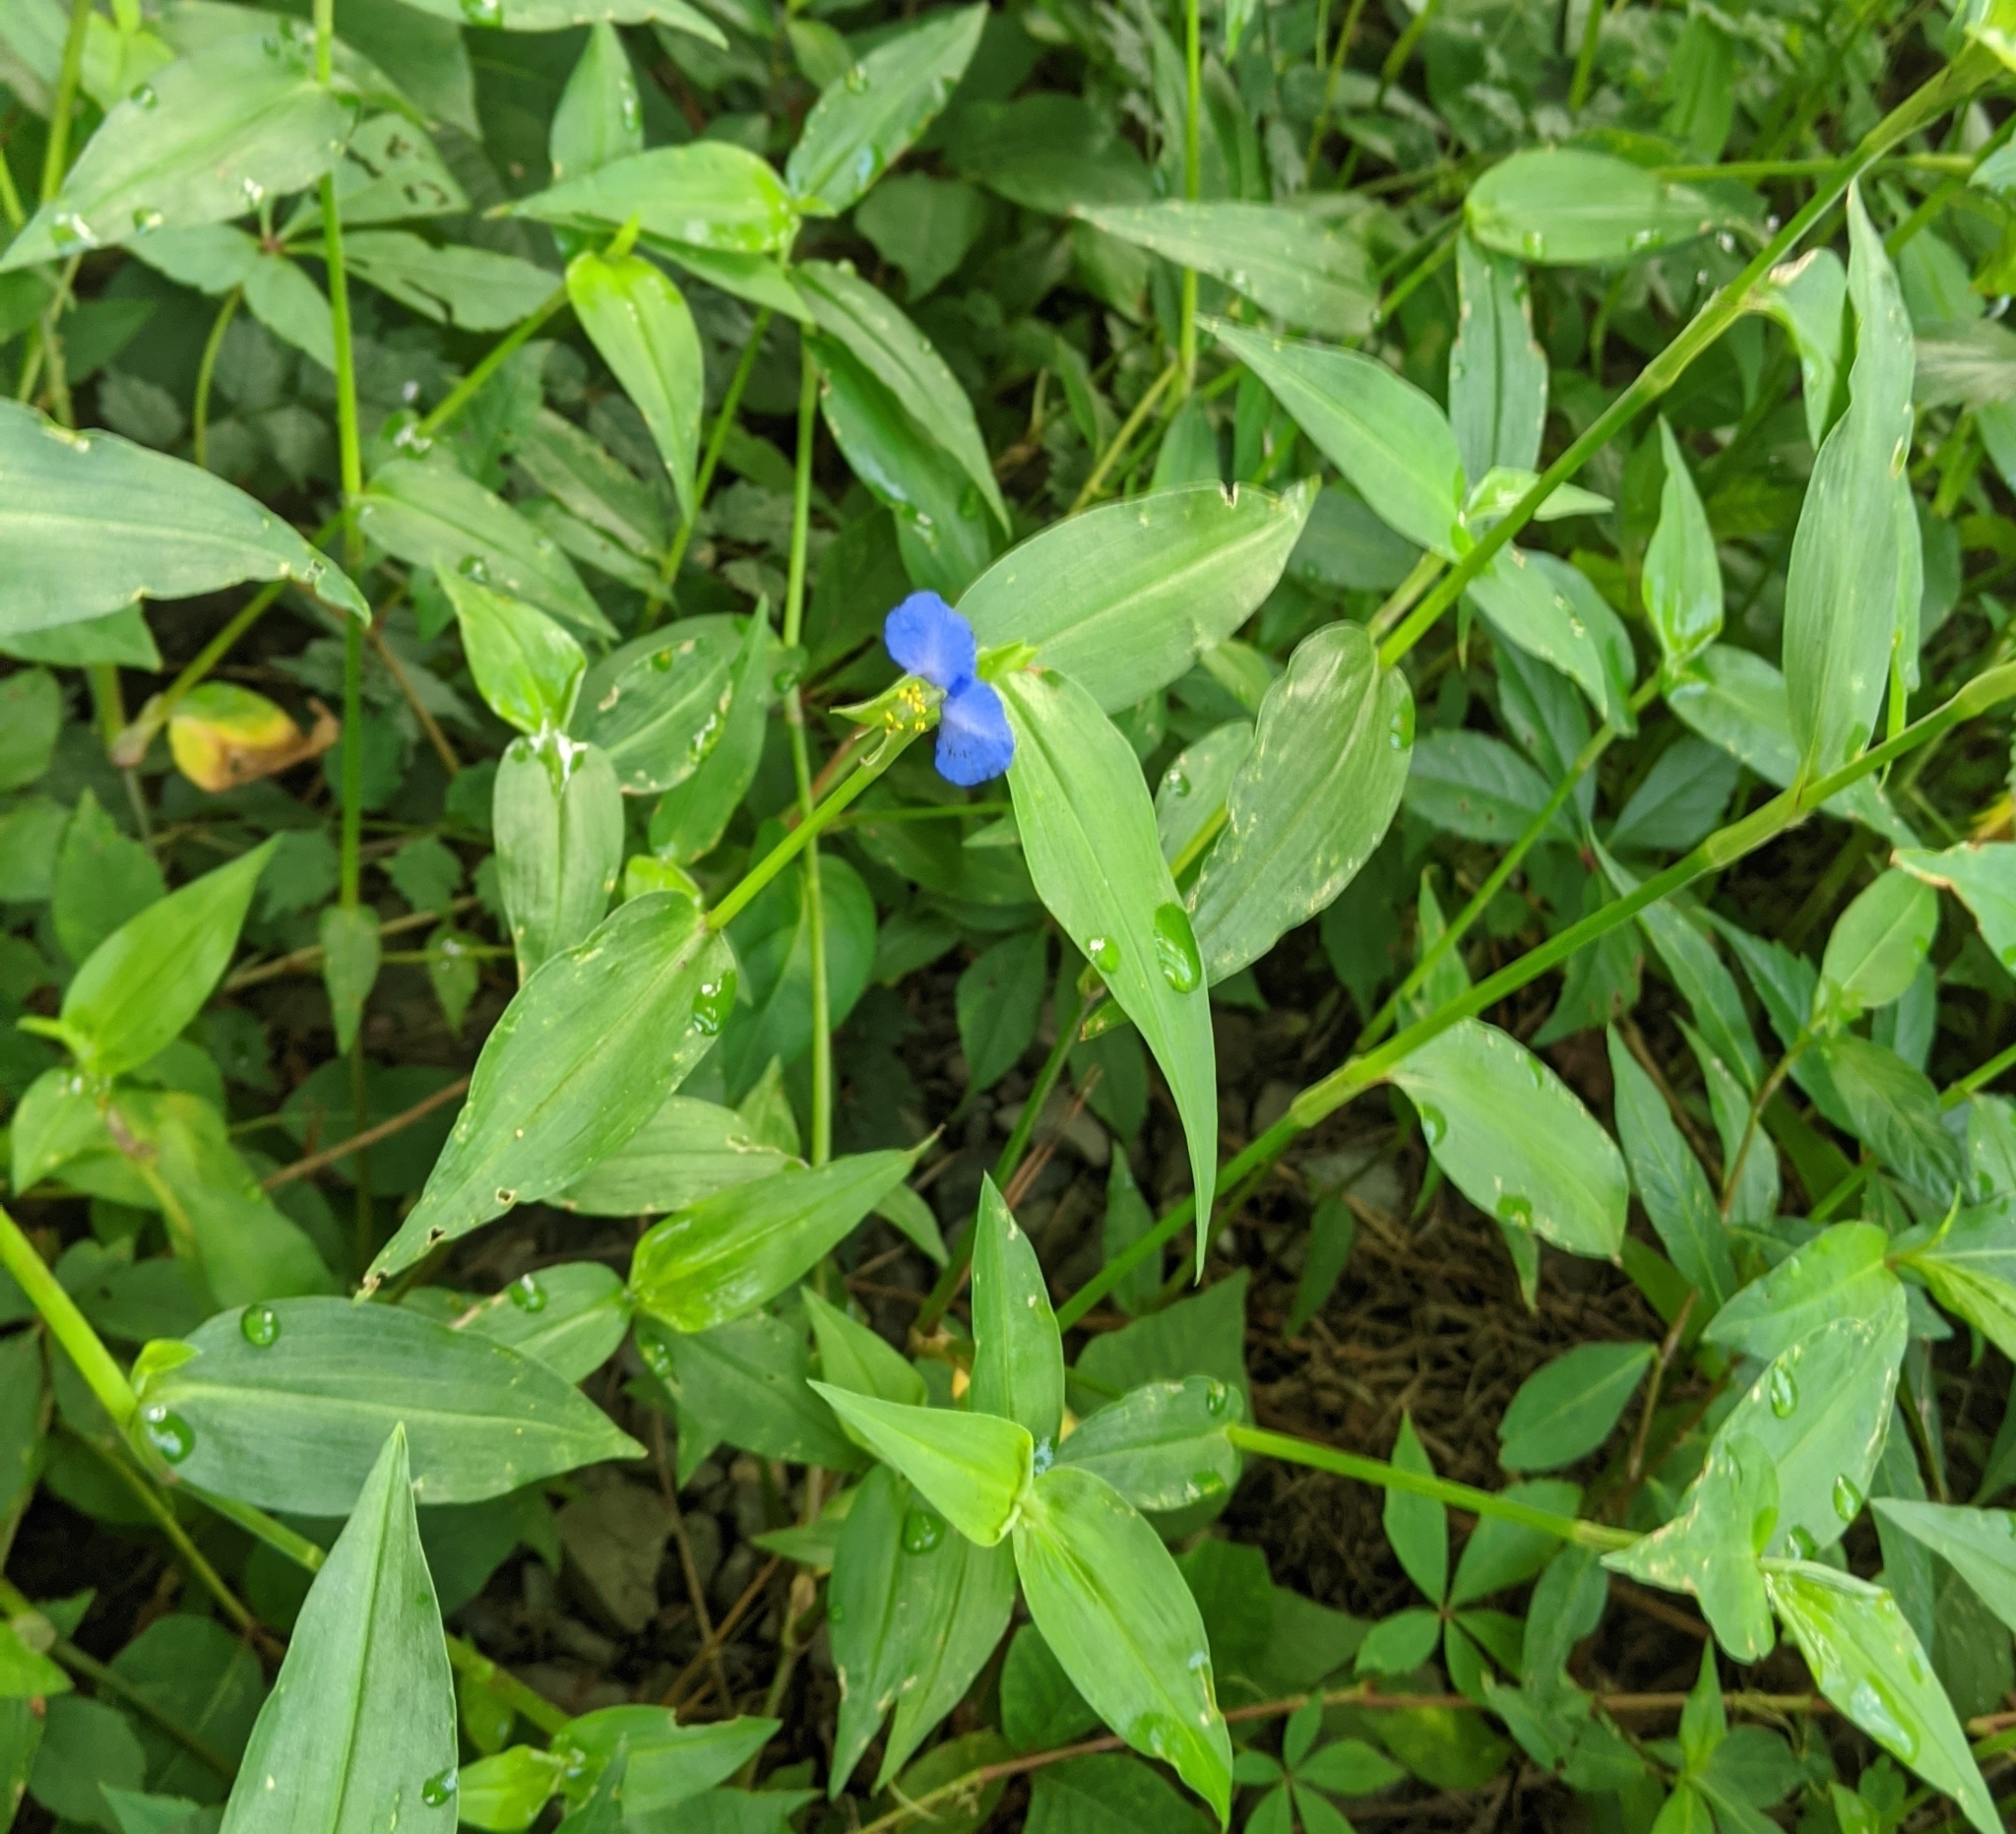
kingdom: Plantae
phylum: Tracheophyta
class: Liliopsida
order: Commelinales
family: Commelinaceae
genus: Commelina
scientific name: Commelina communis
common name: Asiatic dayflower
